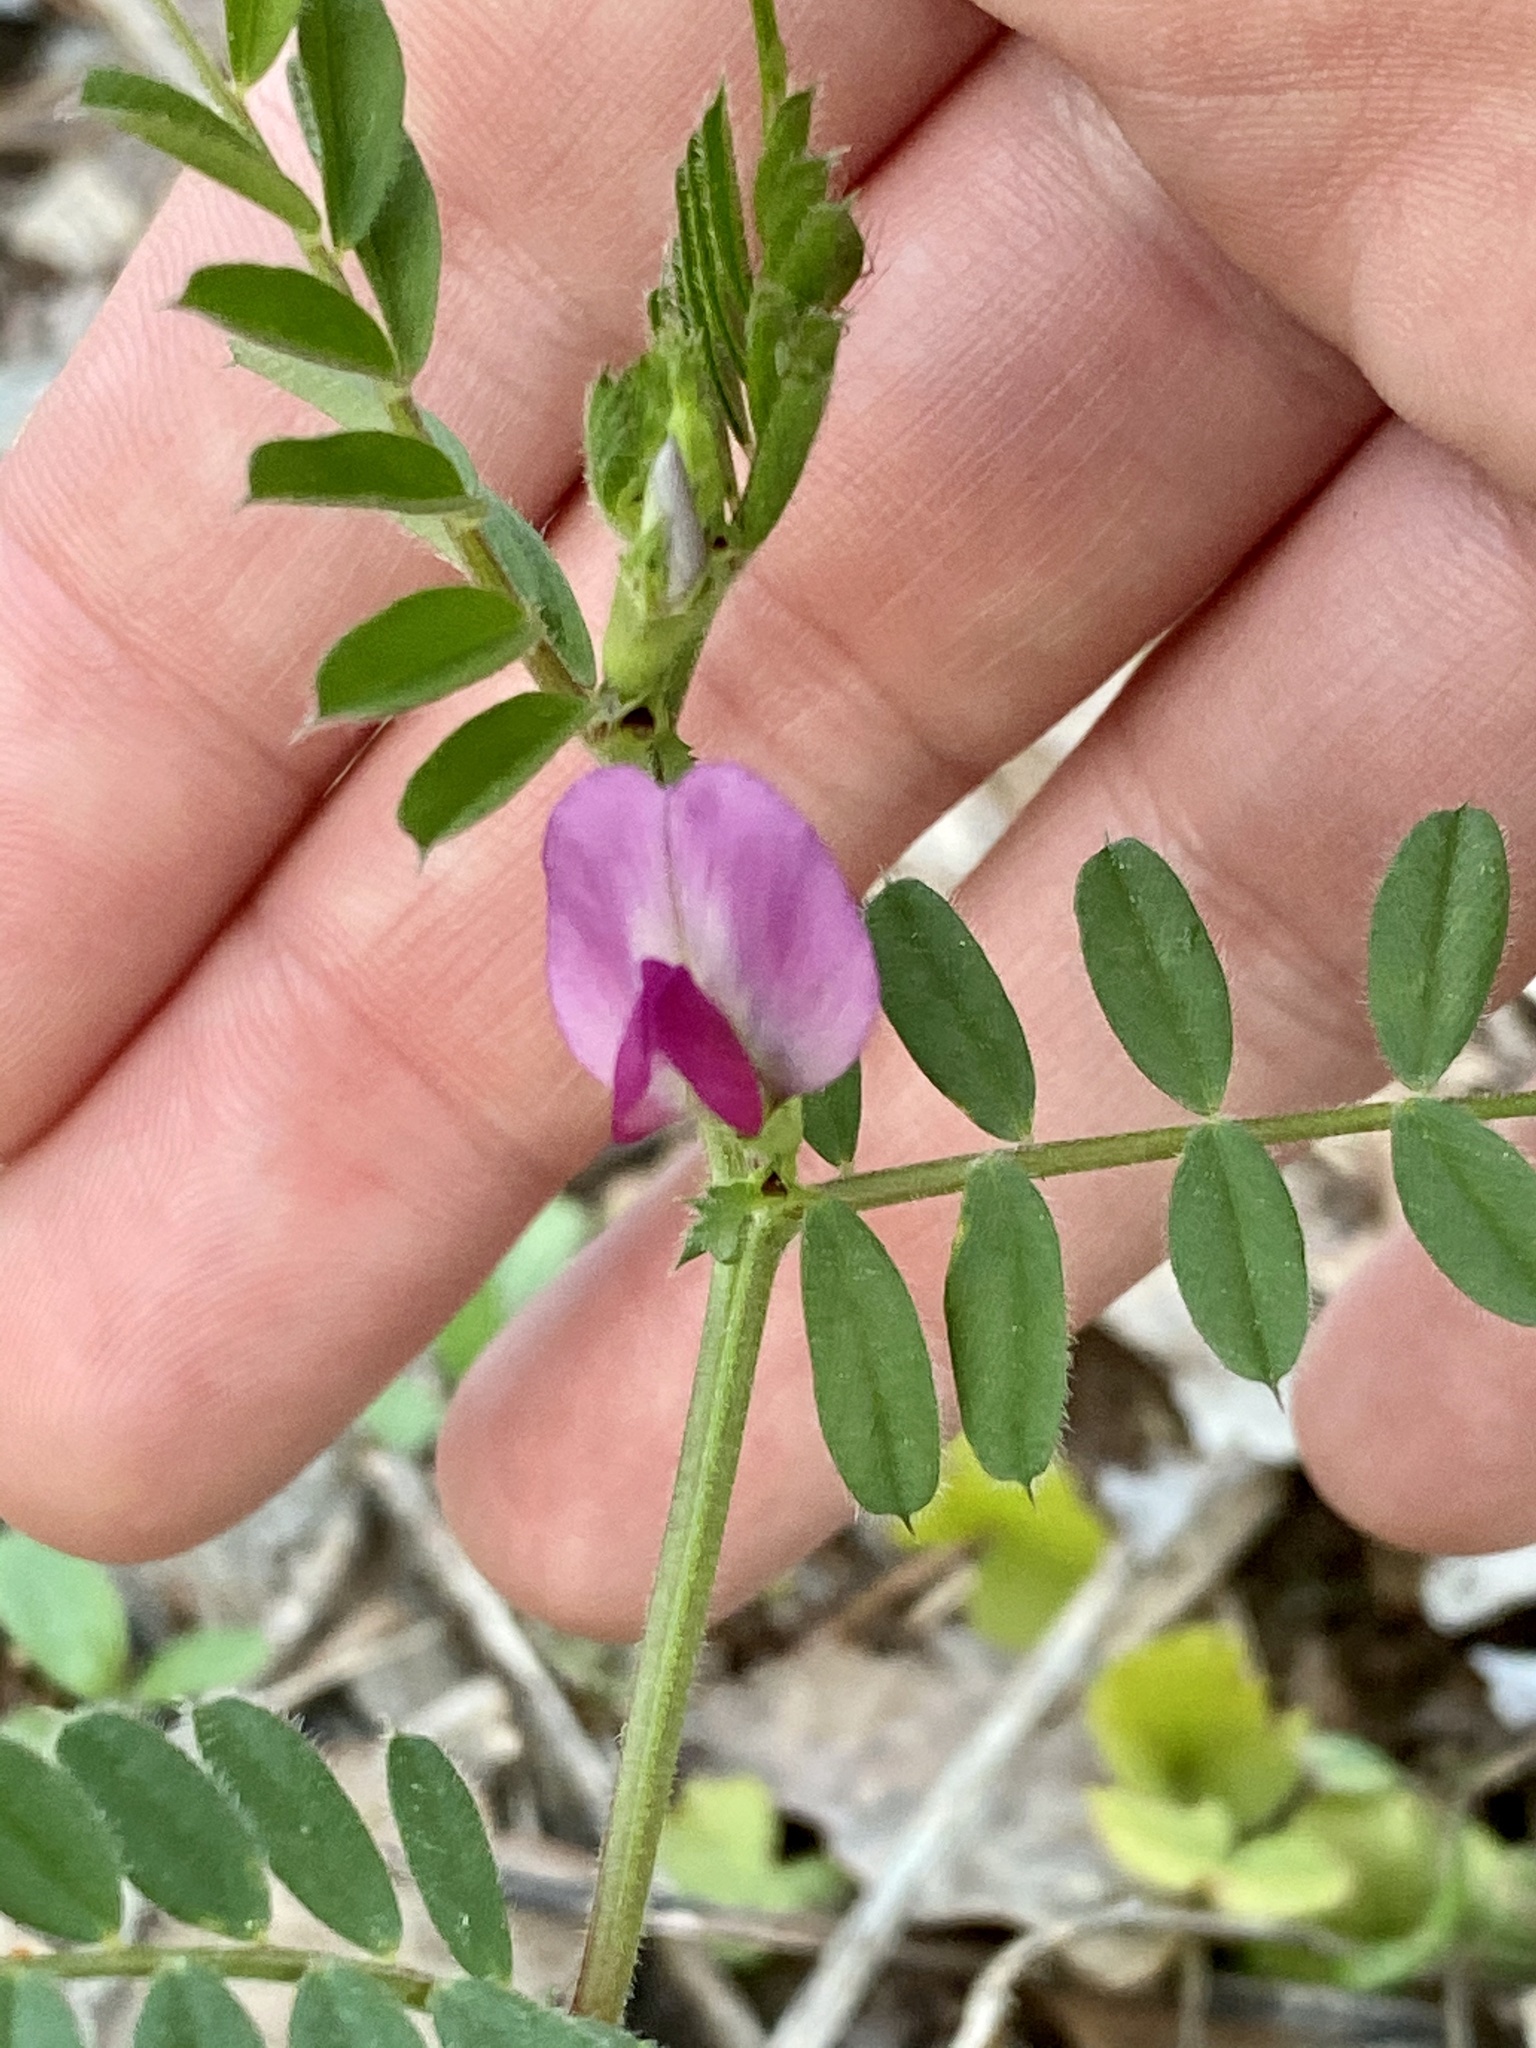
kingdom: Plantae
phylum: Tracheophyta
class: Magnoliopsida
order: Fabales
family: Fabaceae
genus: Vicia
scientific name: Vicia sativa
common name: Garden vetch
